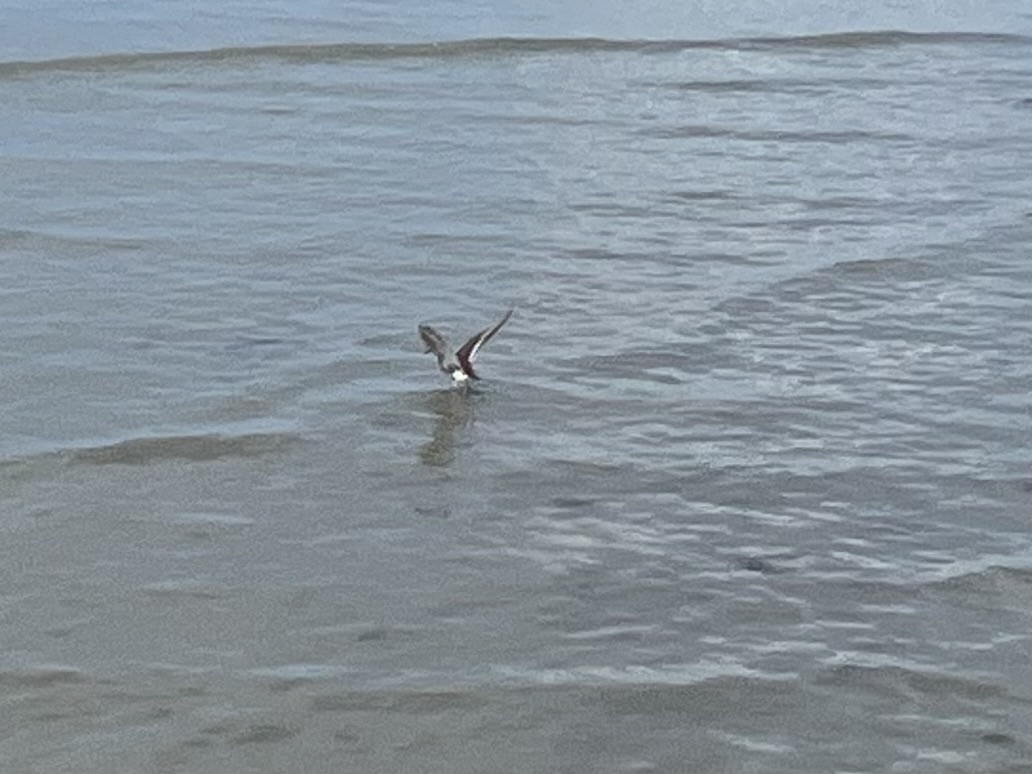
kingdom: Animalia
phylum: Chordata
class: Aves
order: Charadriiformes
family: Scolopacidae
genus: Calidris
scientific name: Calidris alpina
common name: Dunlin
